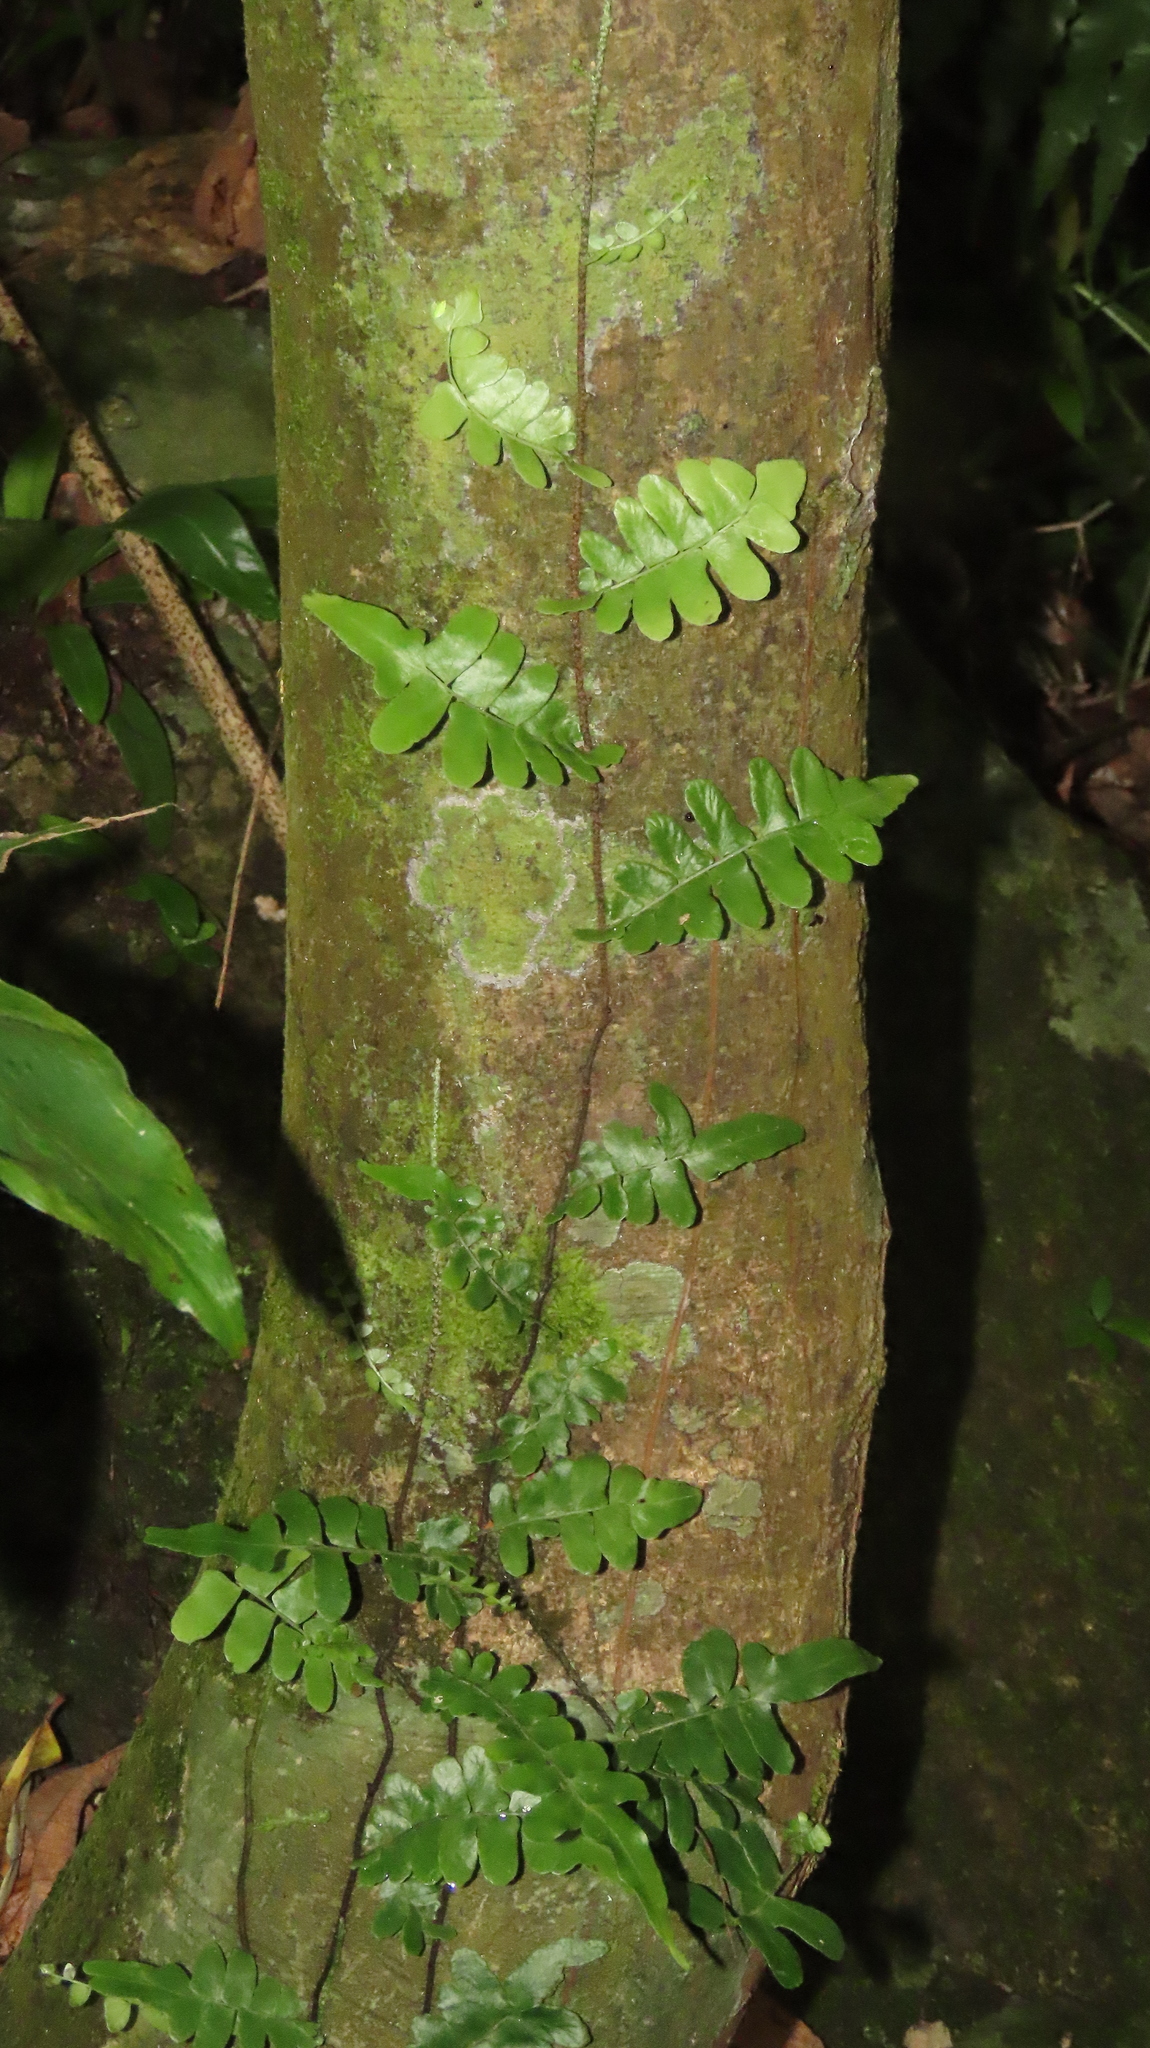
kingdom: Plantae
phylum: Tracheophyta
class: Polypodiopsida
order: Polypodiales
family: Tectariaceae
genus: Arthropteris
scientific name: Arthropteris palisotii
